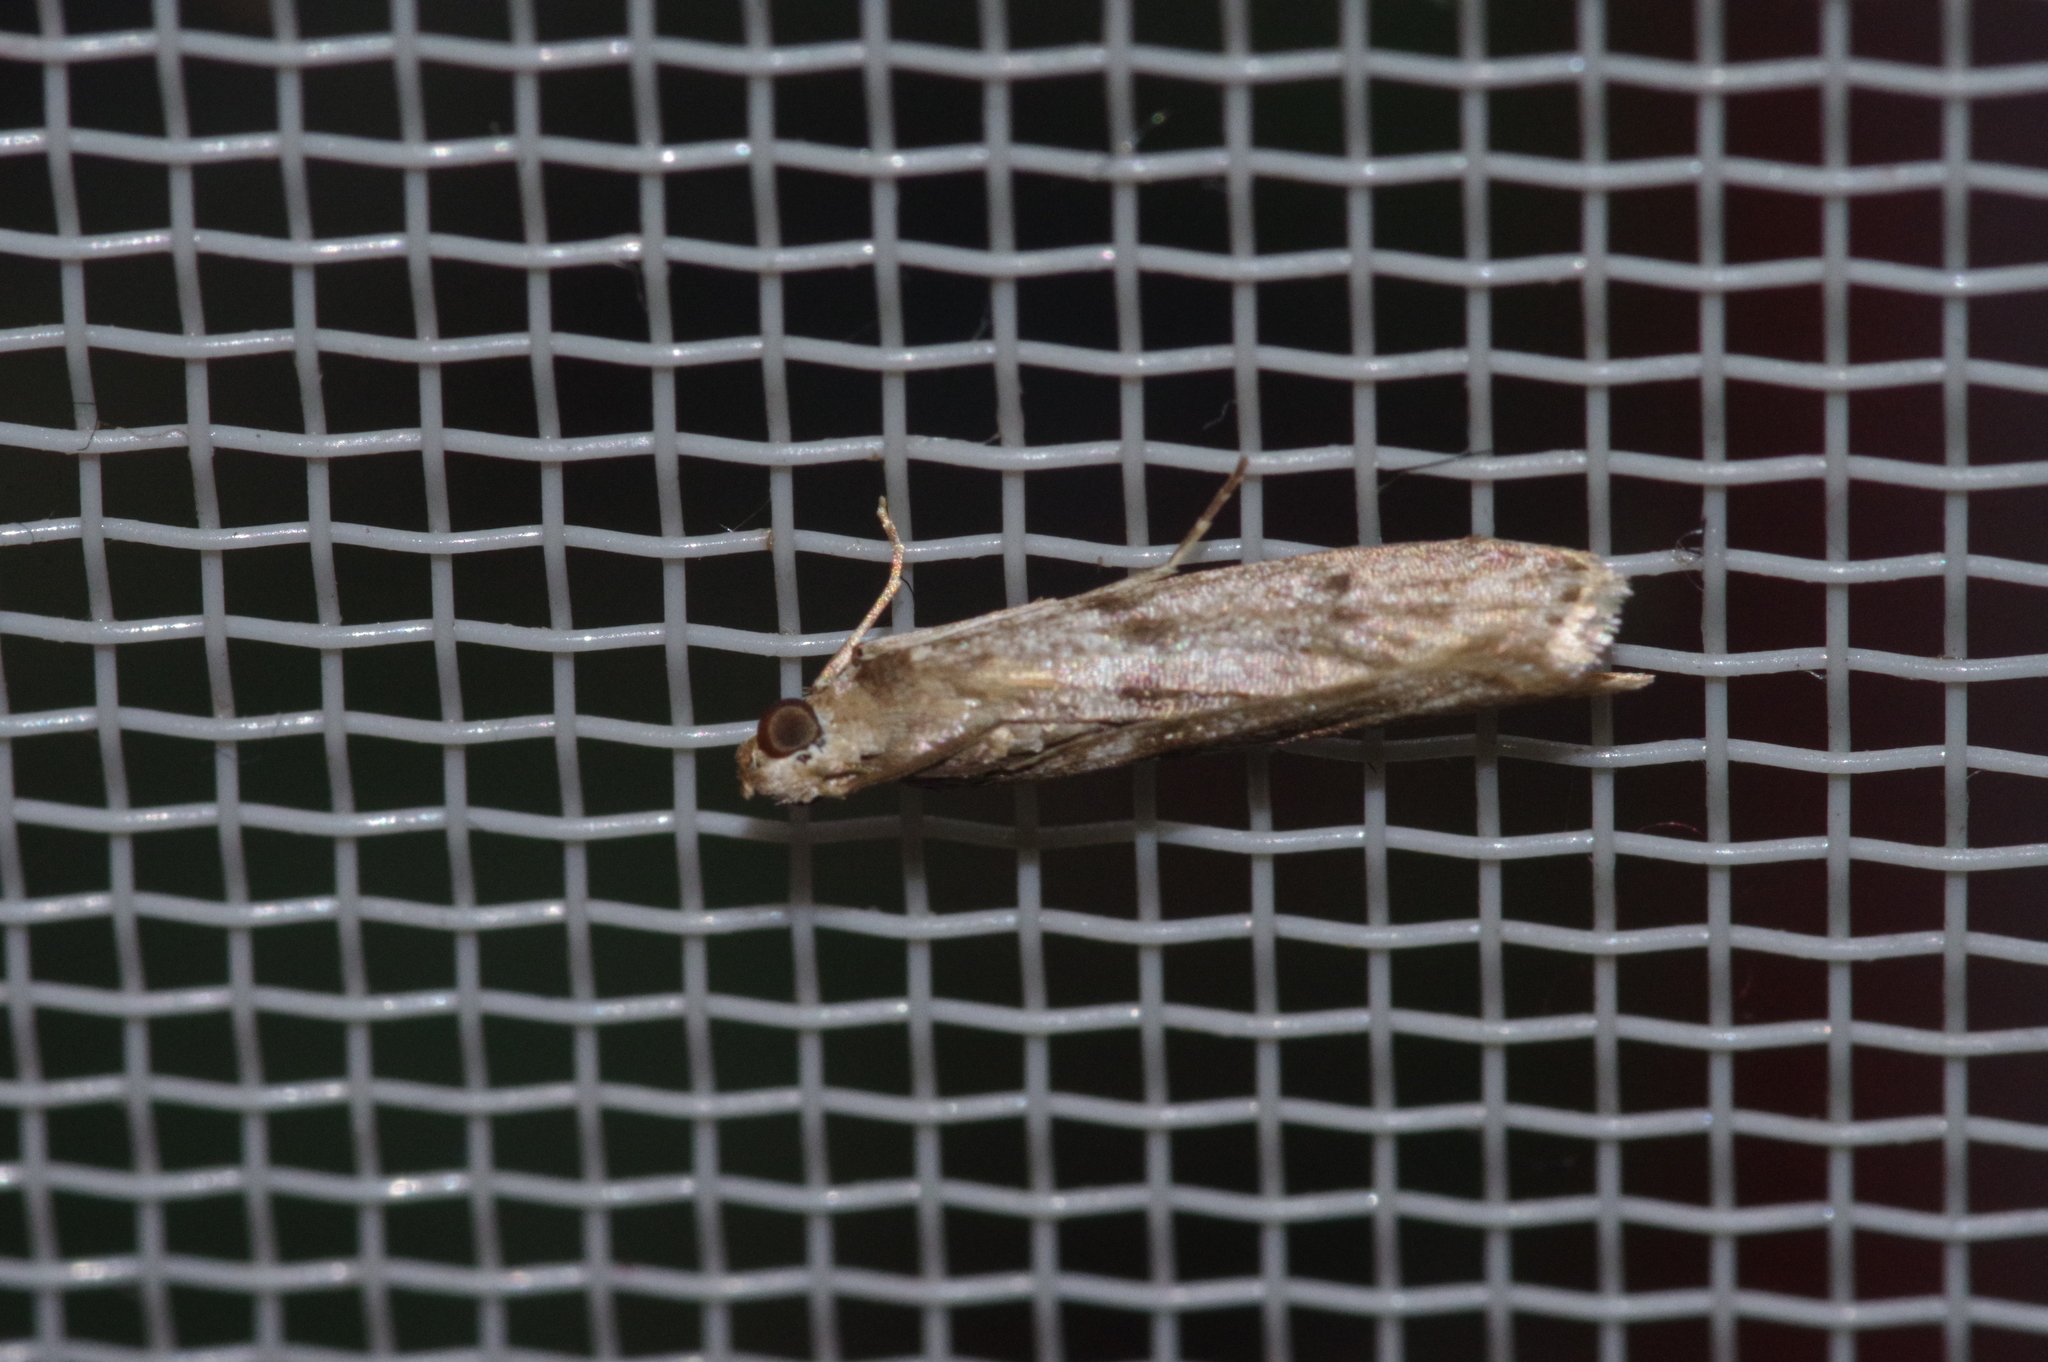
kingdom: Animalia
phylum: Arthropoda
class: Insecta
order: Lepidoptera
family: Pyralidae
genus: Glyptoteles
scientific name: Glyptoteles leucacrinella
